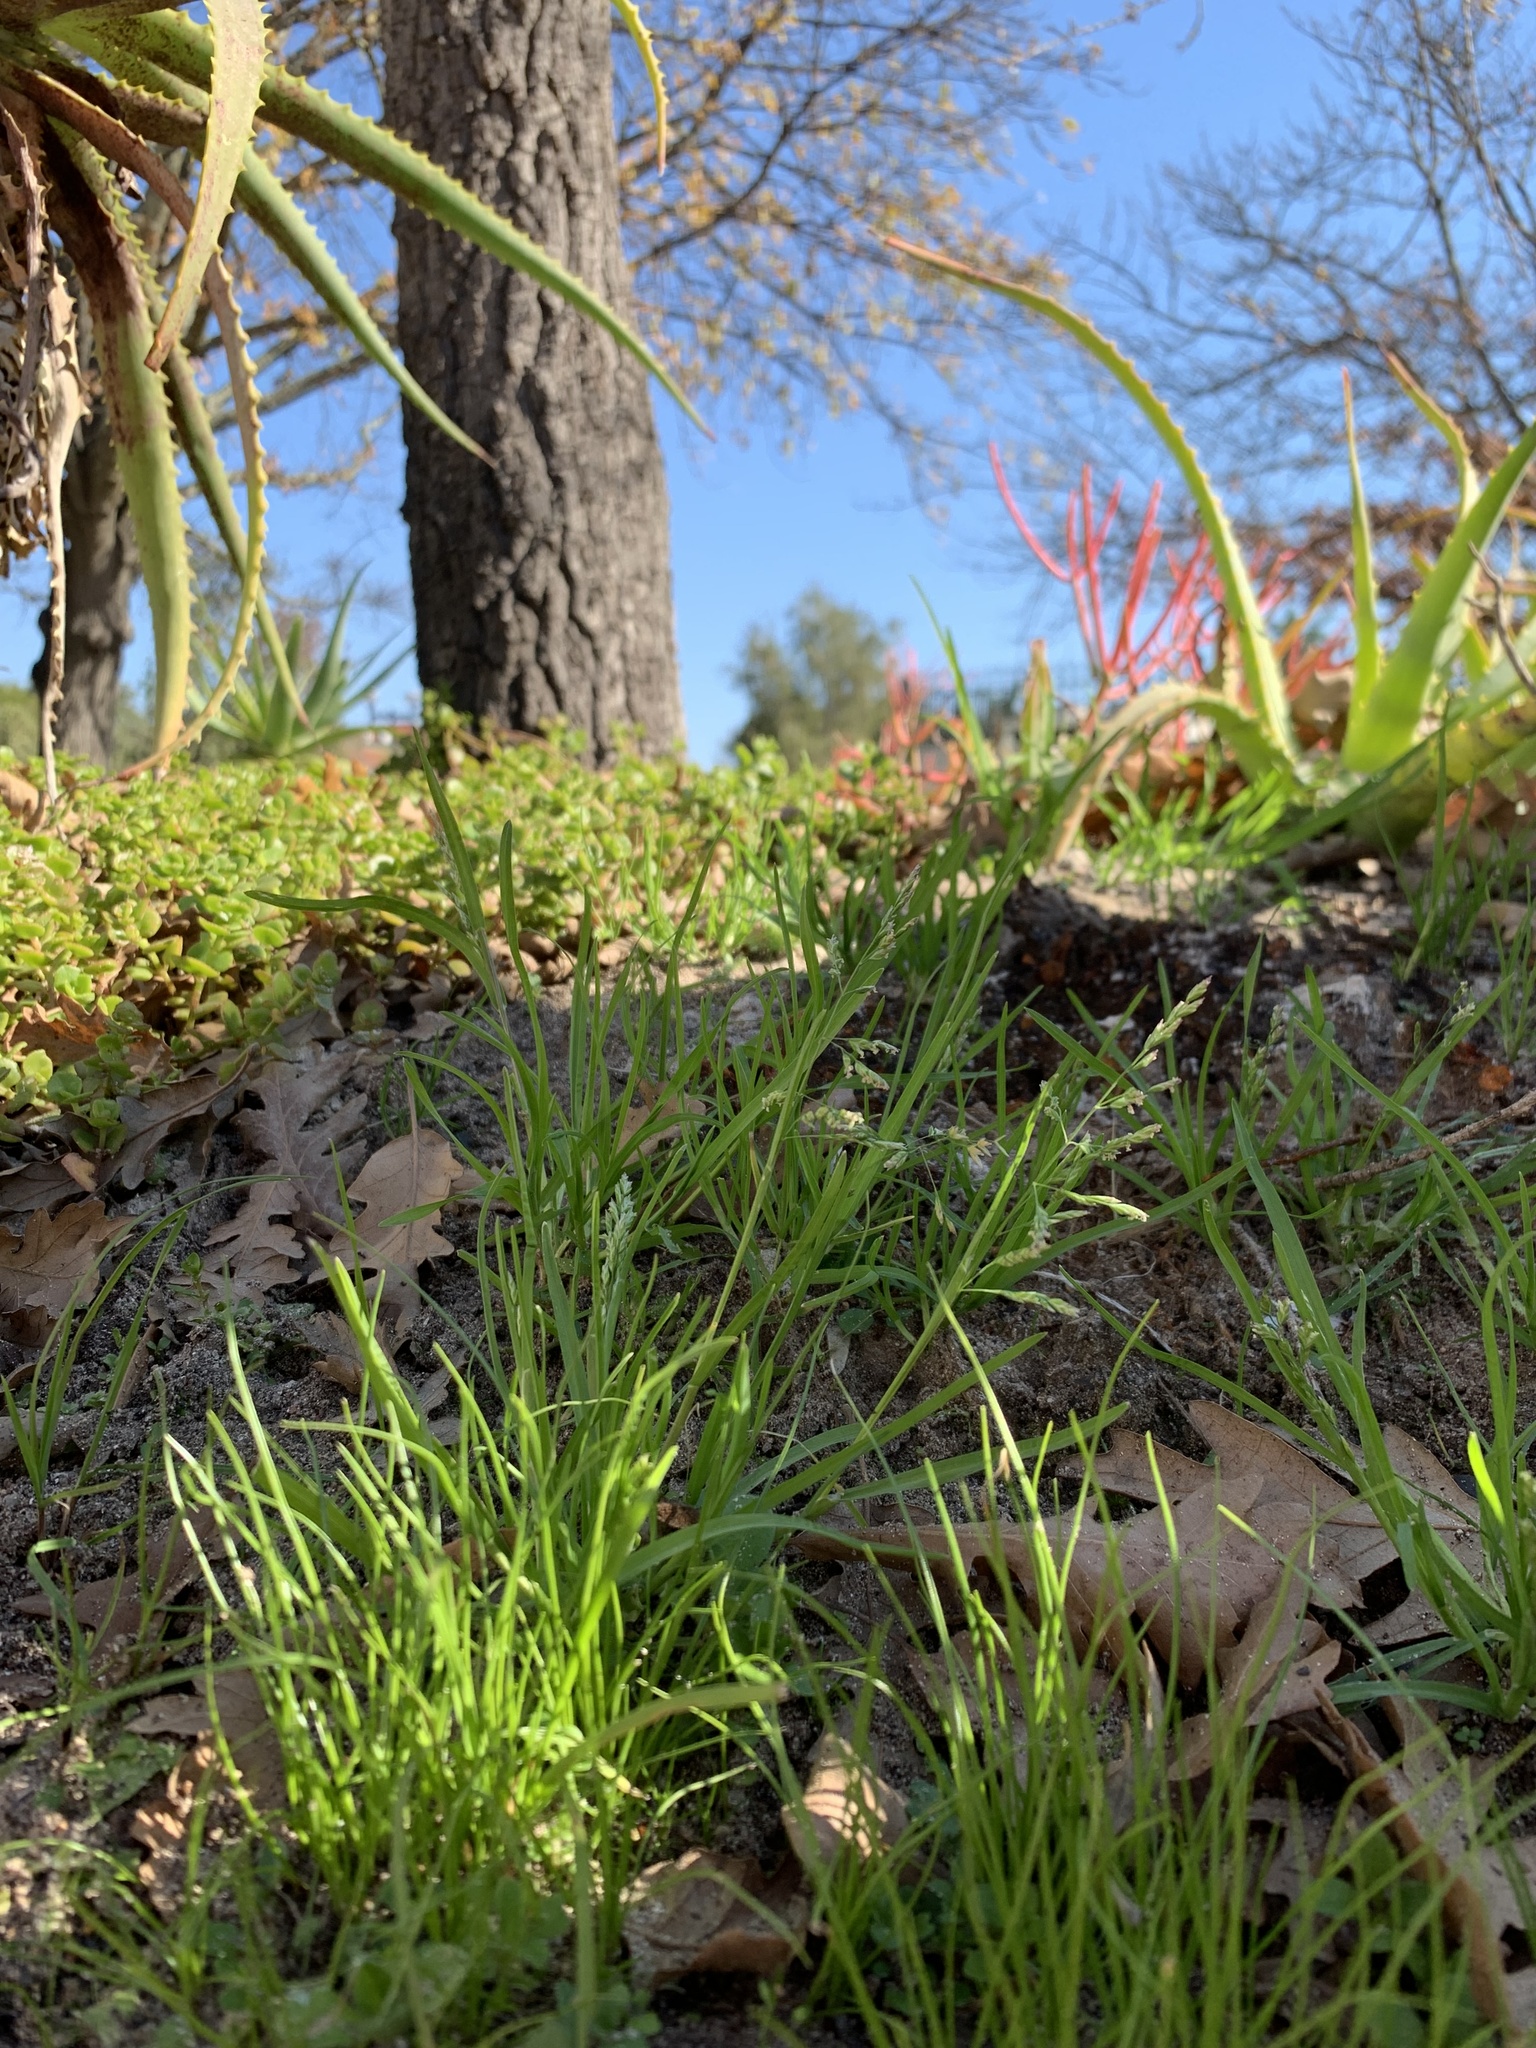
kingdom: Plantae
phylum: Tracheophyta
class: Liliopsida
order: Poales
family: Poaceae
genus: Poa
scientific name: Poa annua
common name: Annual bluegrass
